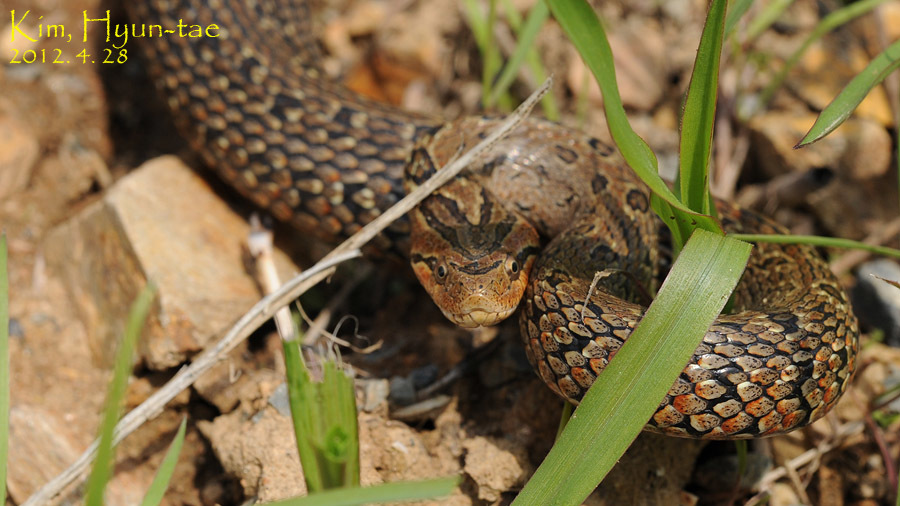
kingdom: Animalia
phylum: Chordata
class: Squamata
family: Colubridae
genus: Oocatochus
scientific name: Oocatochus rufodorsatus
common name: Frog-eating rat snake
